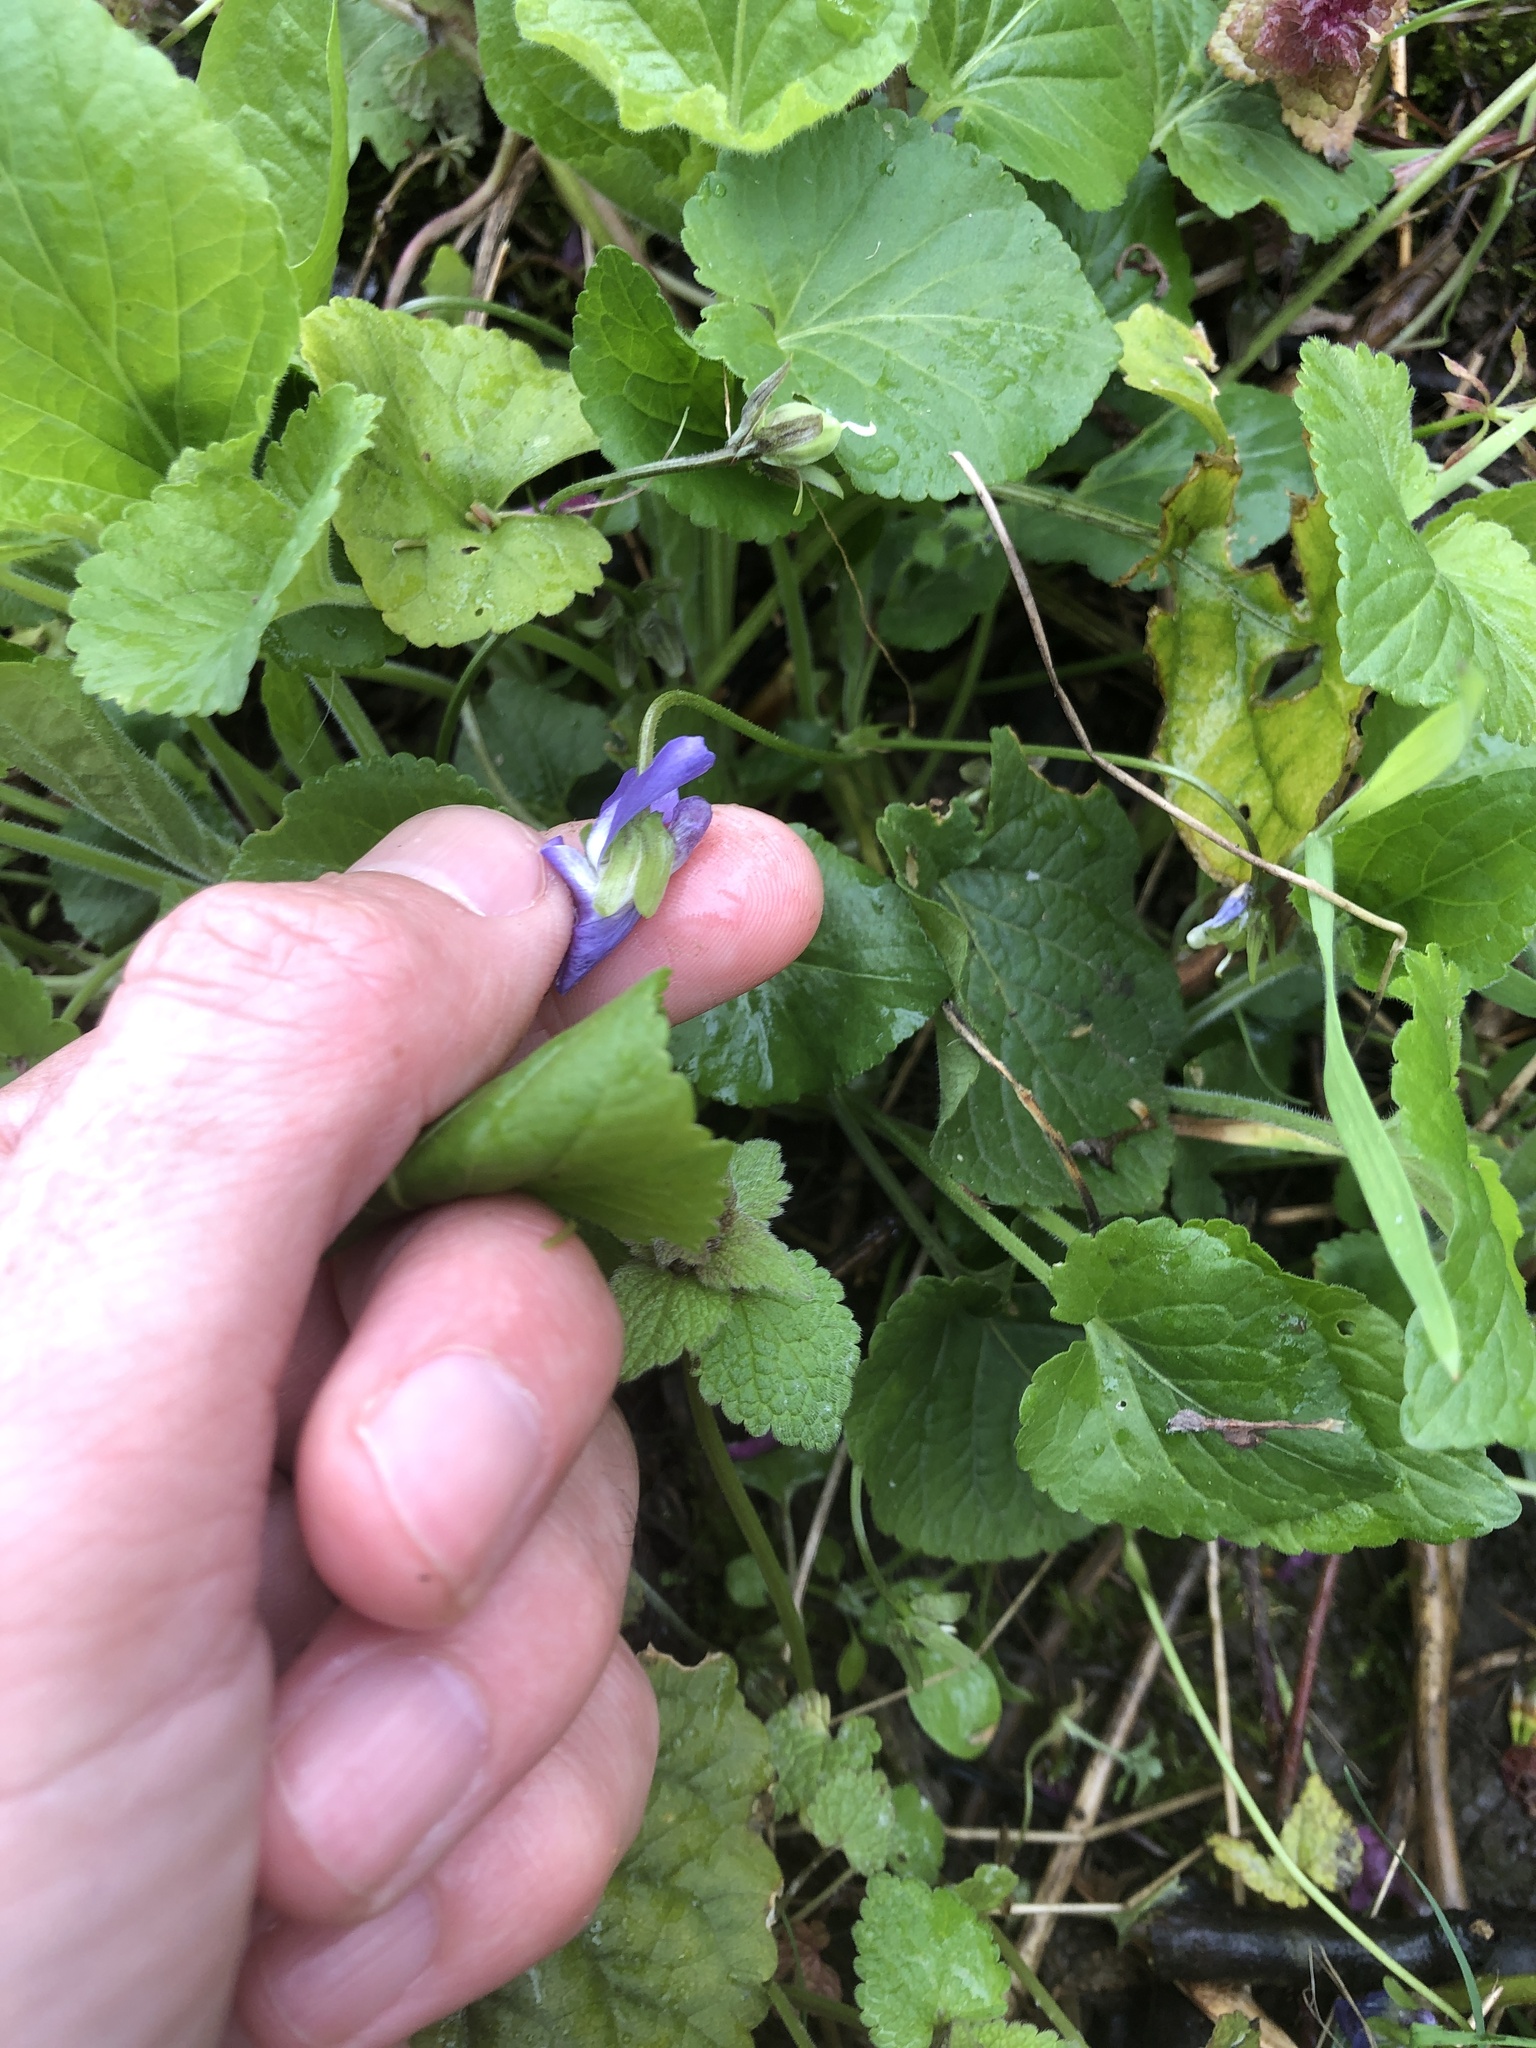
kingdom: Plantae
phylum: Tracheophyta
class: Magnoliopsida
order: Malpighiales
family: Violaceae
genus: Viola
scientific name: Viola suavis
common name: Russian violet
